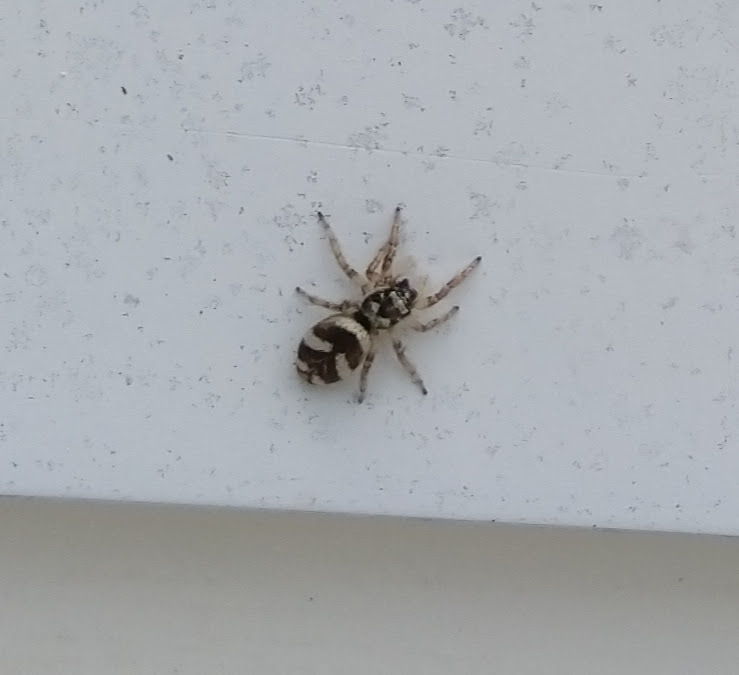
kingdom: Animalia
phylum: Arthropoda
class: Arachnida
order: Araneae
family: Salticidae
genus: Salticus
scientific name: Salticus scenicus
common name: Zebra jumper
